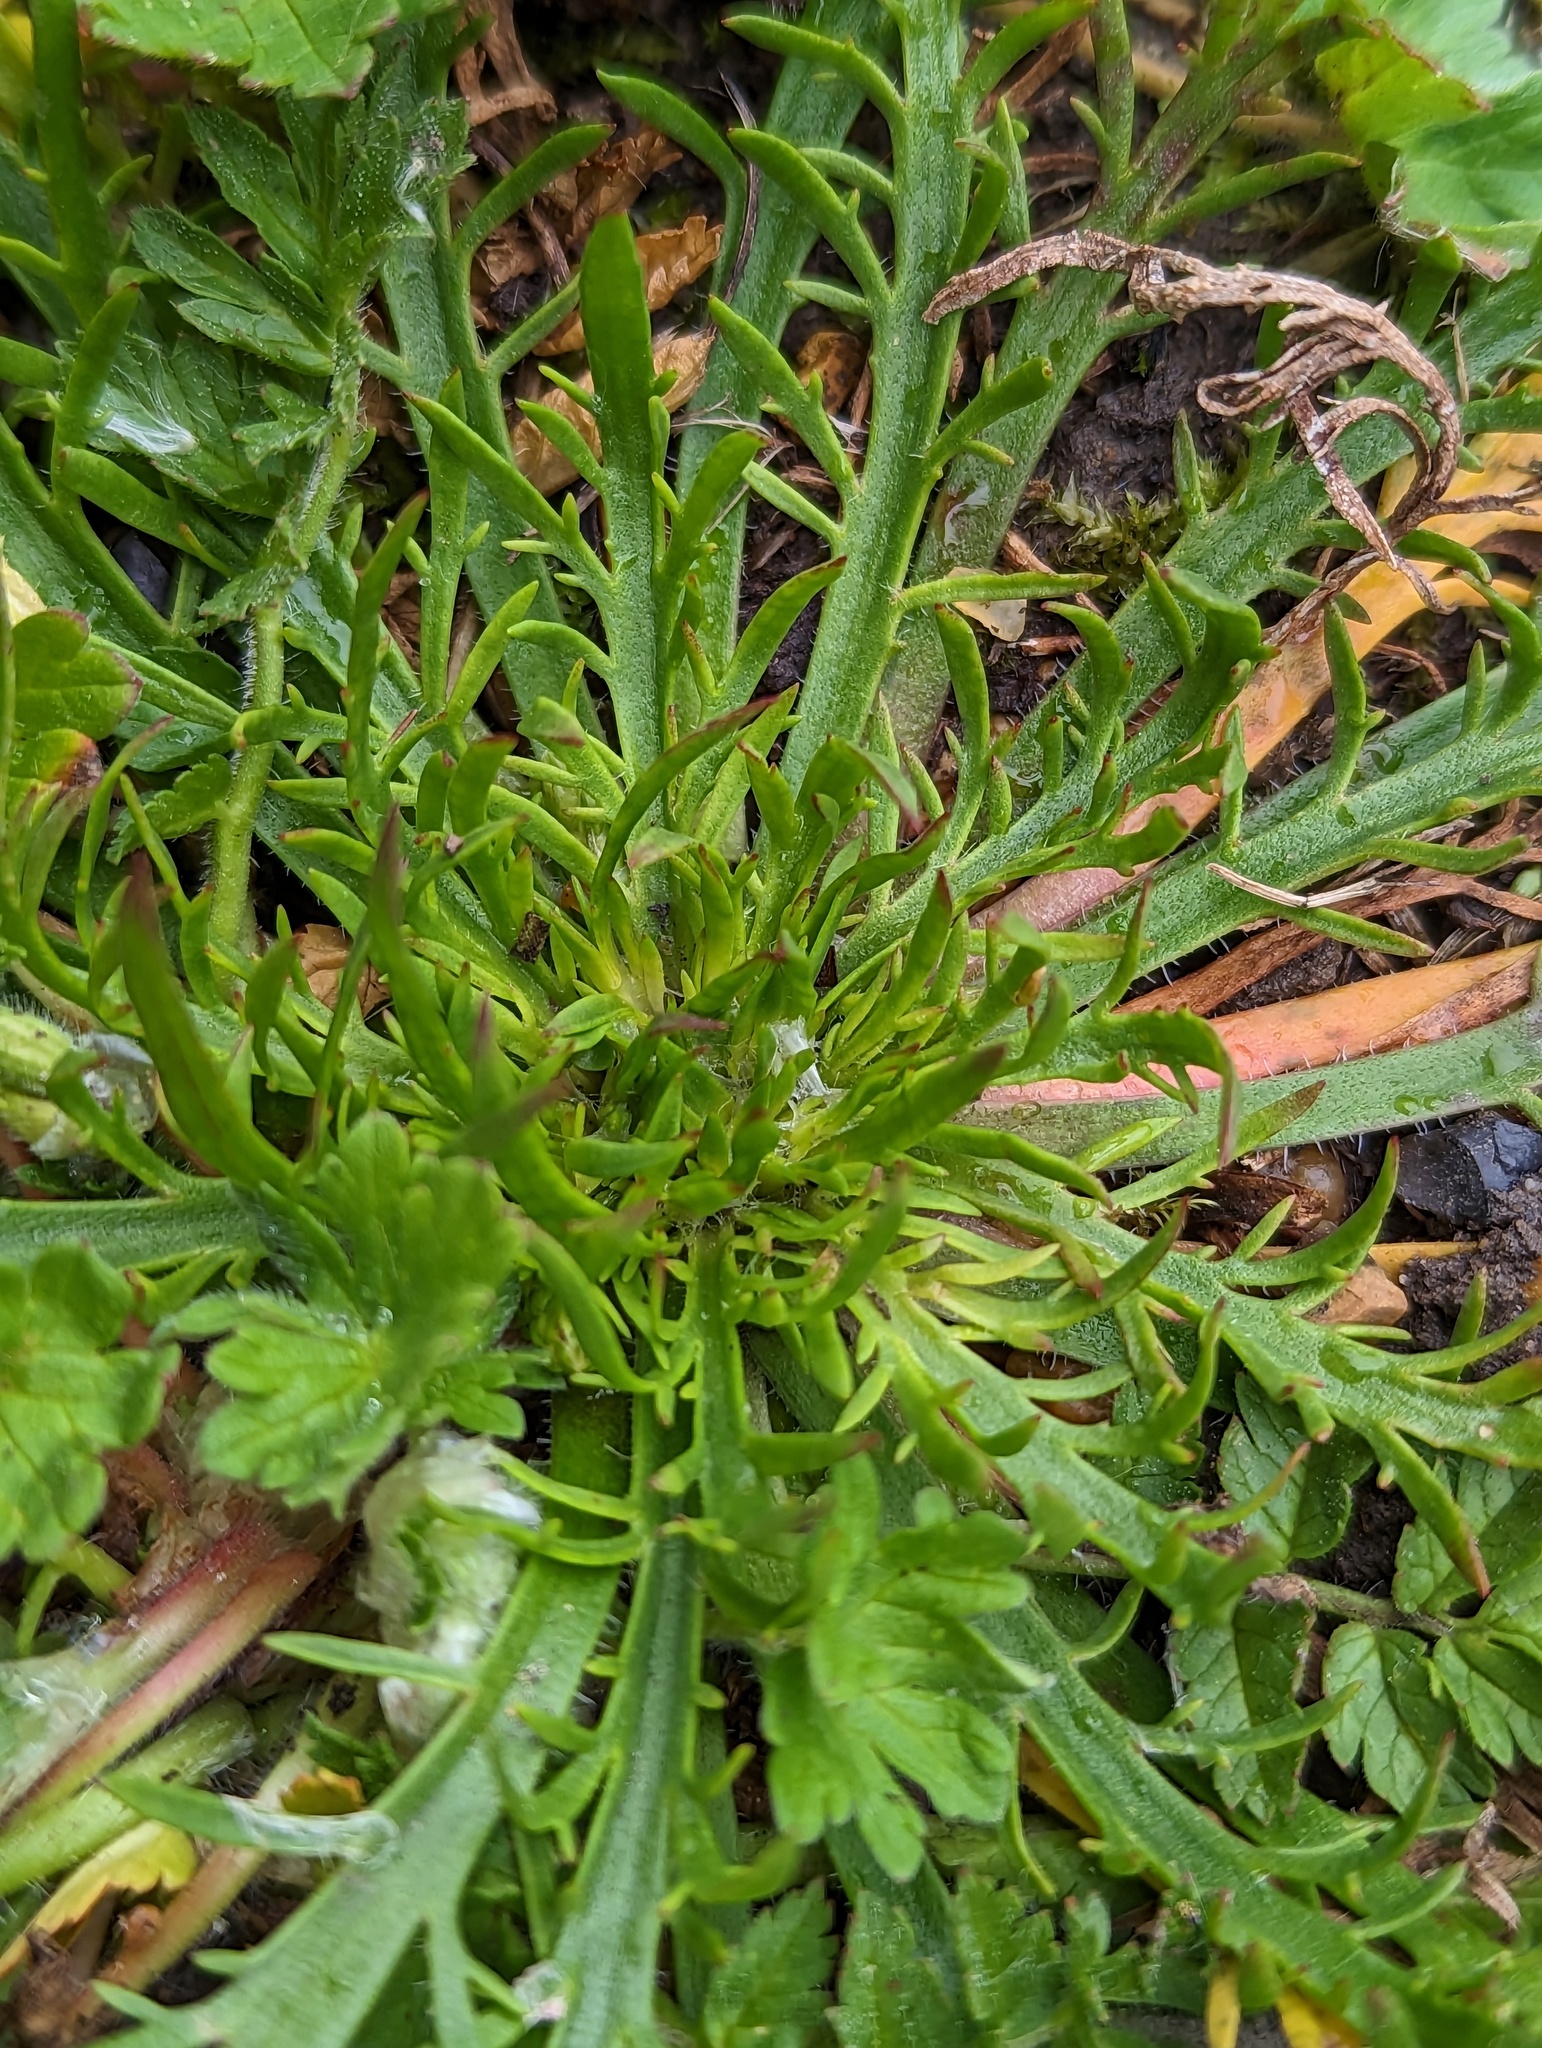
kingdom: Plantae
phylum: Tracheophyta
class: Magnoliopsida
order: Lamiales
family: Plantaginaceae
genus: Plantago
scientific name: Plantago coronopus
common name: Buck's-horn plantain
